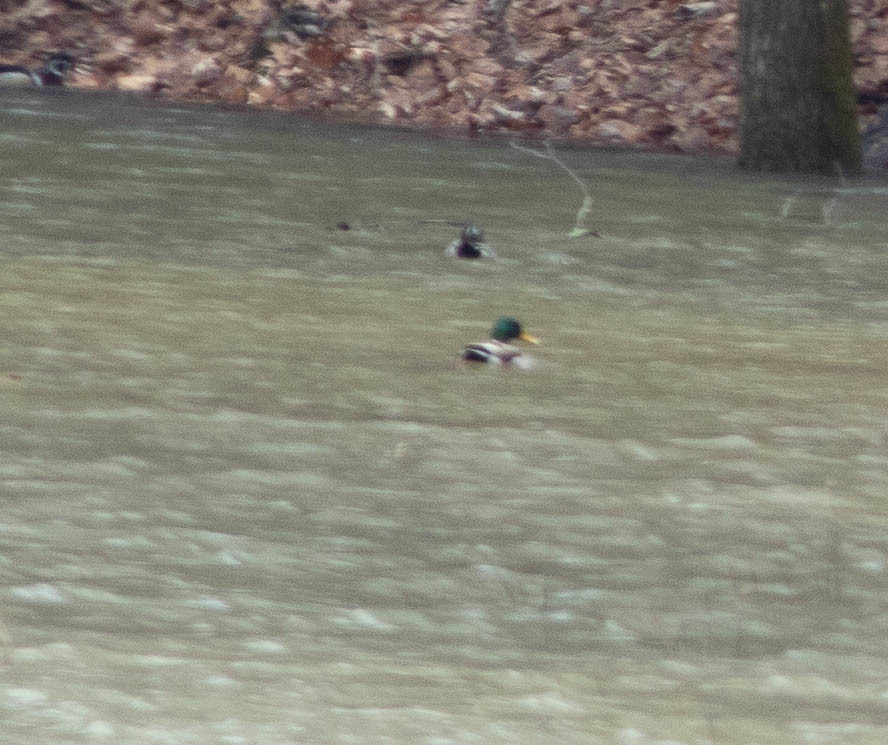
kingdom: Animalia
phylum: Chordata
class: Aves
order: Anseriformes
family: Anatidae
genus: Anas
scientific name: Anas platyrhynchos
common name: Mallard
